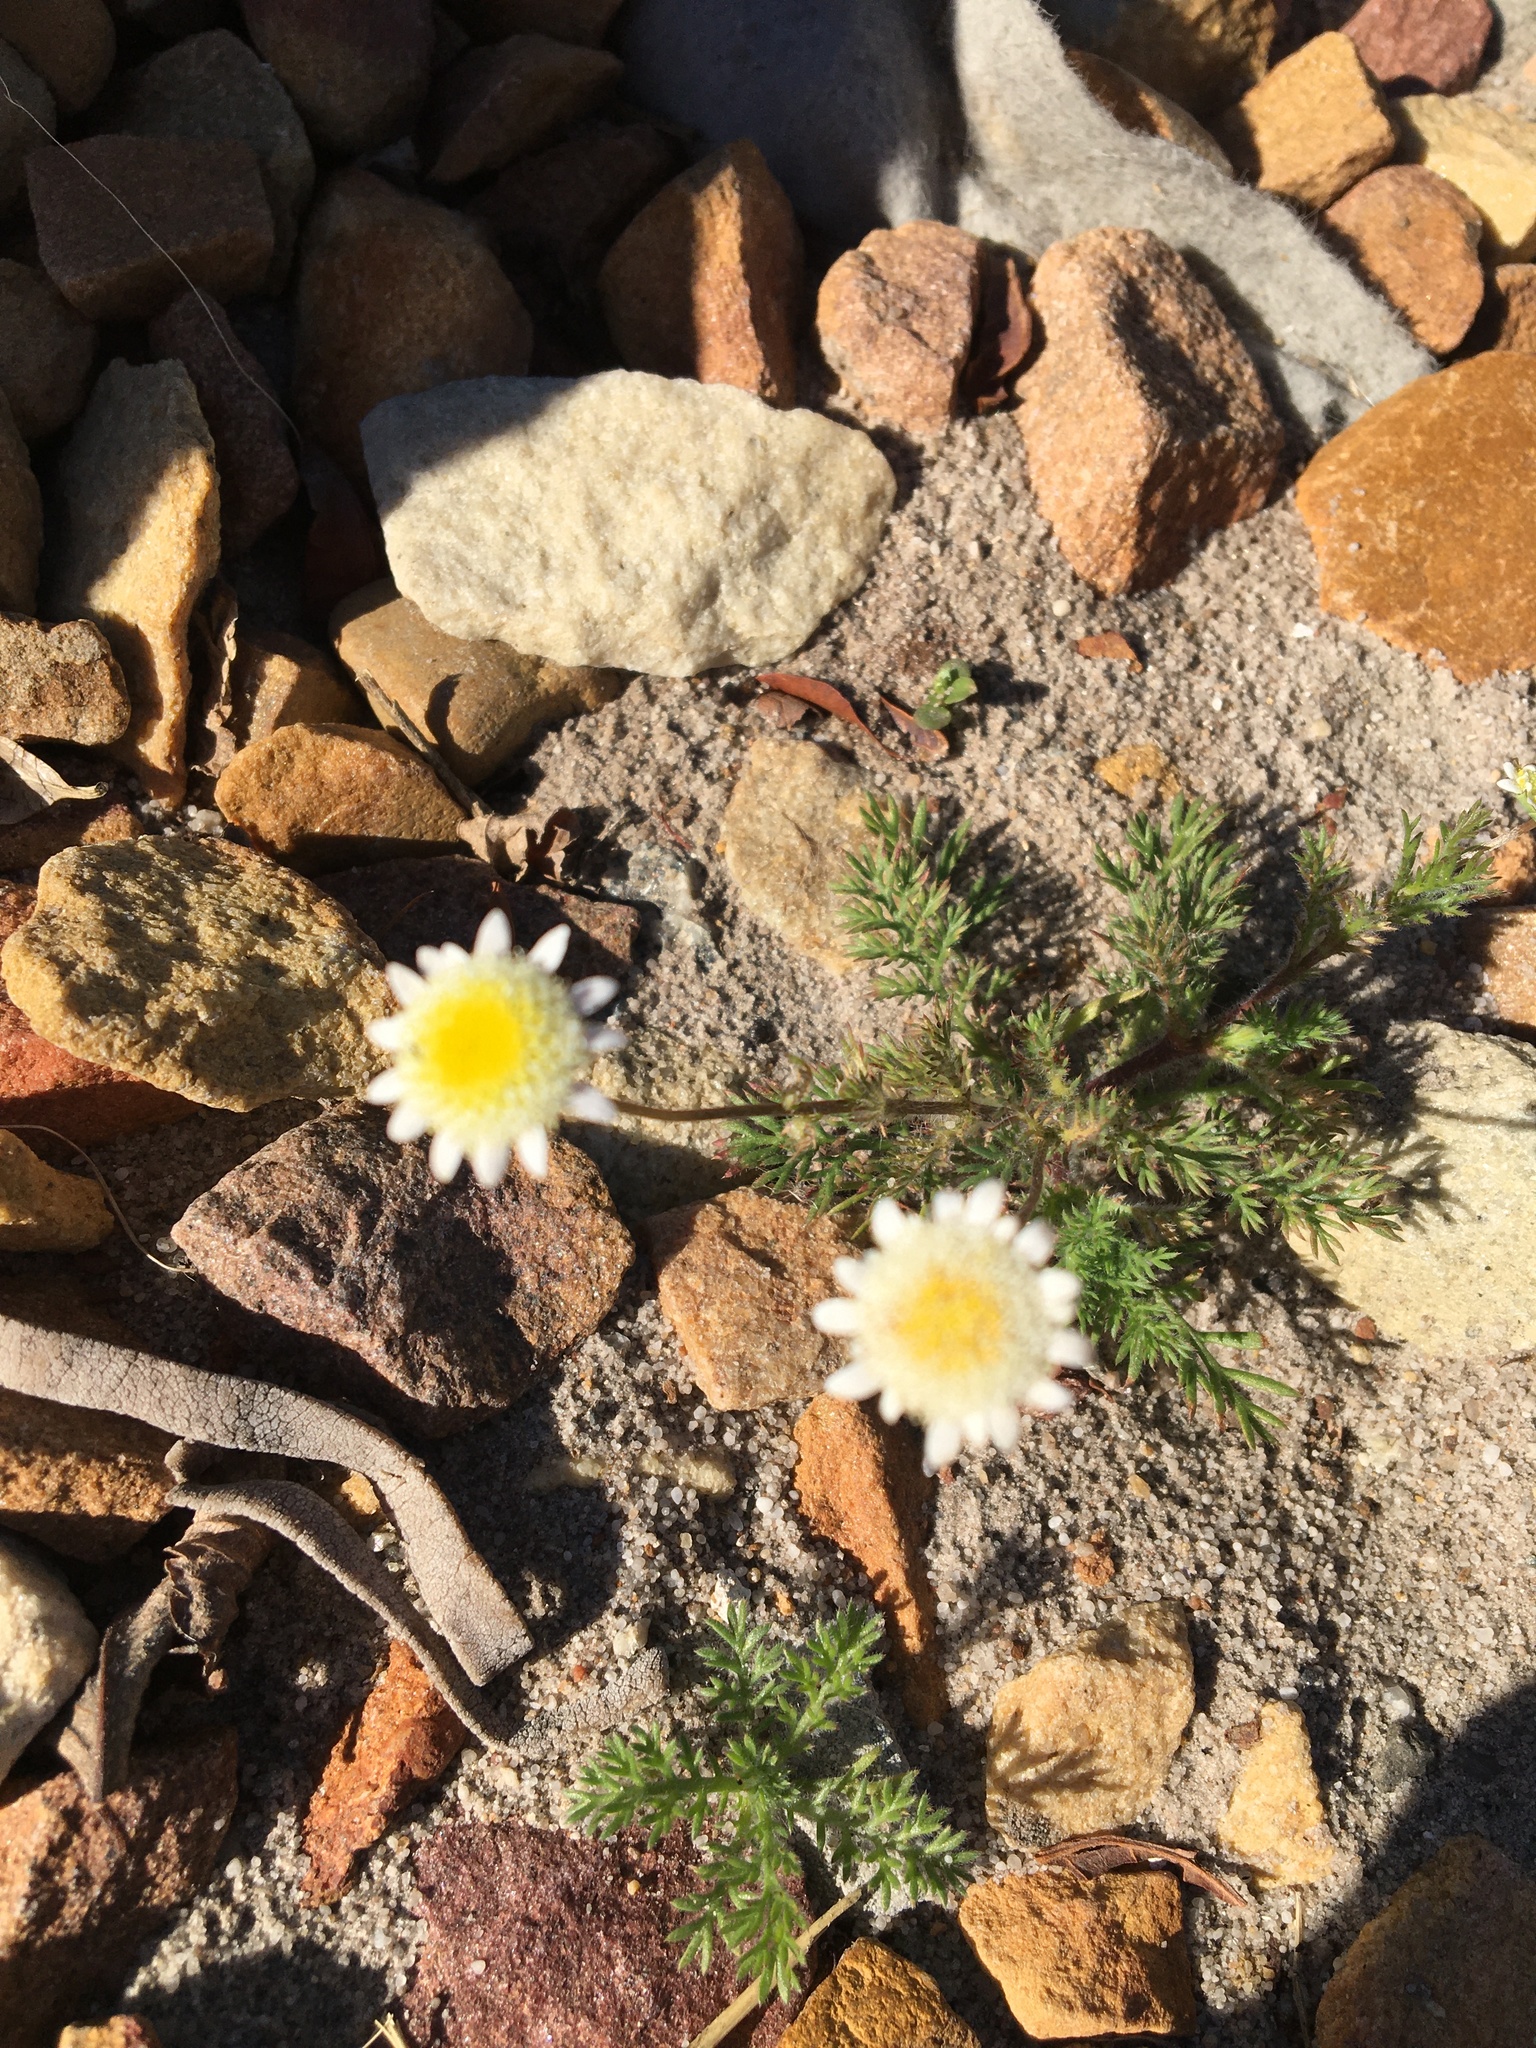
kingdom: Plantae
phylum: Tracheophyta
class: Magnoliopsida
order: Asterales
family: Asteraceae
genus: Cotula
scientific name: Cotula turbinata
